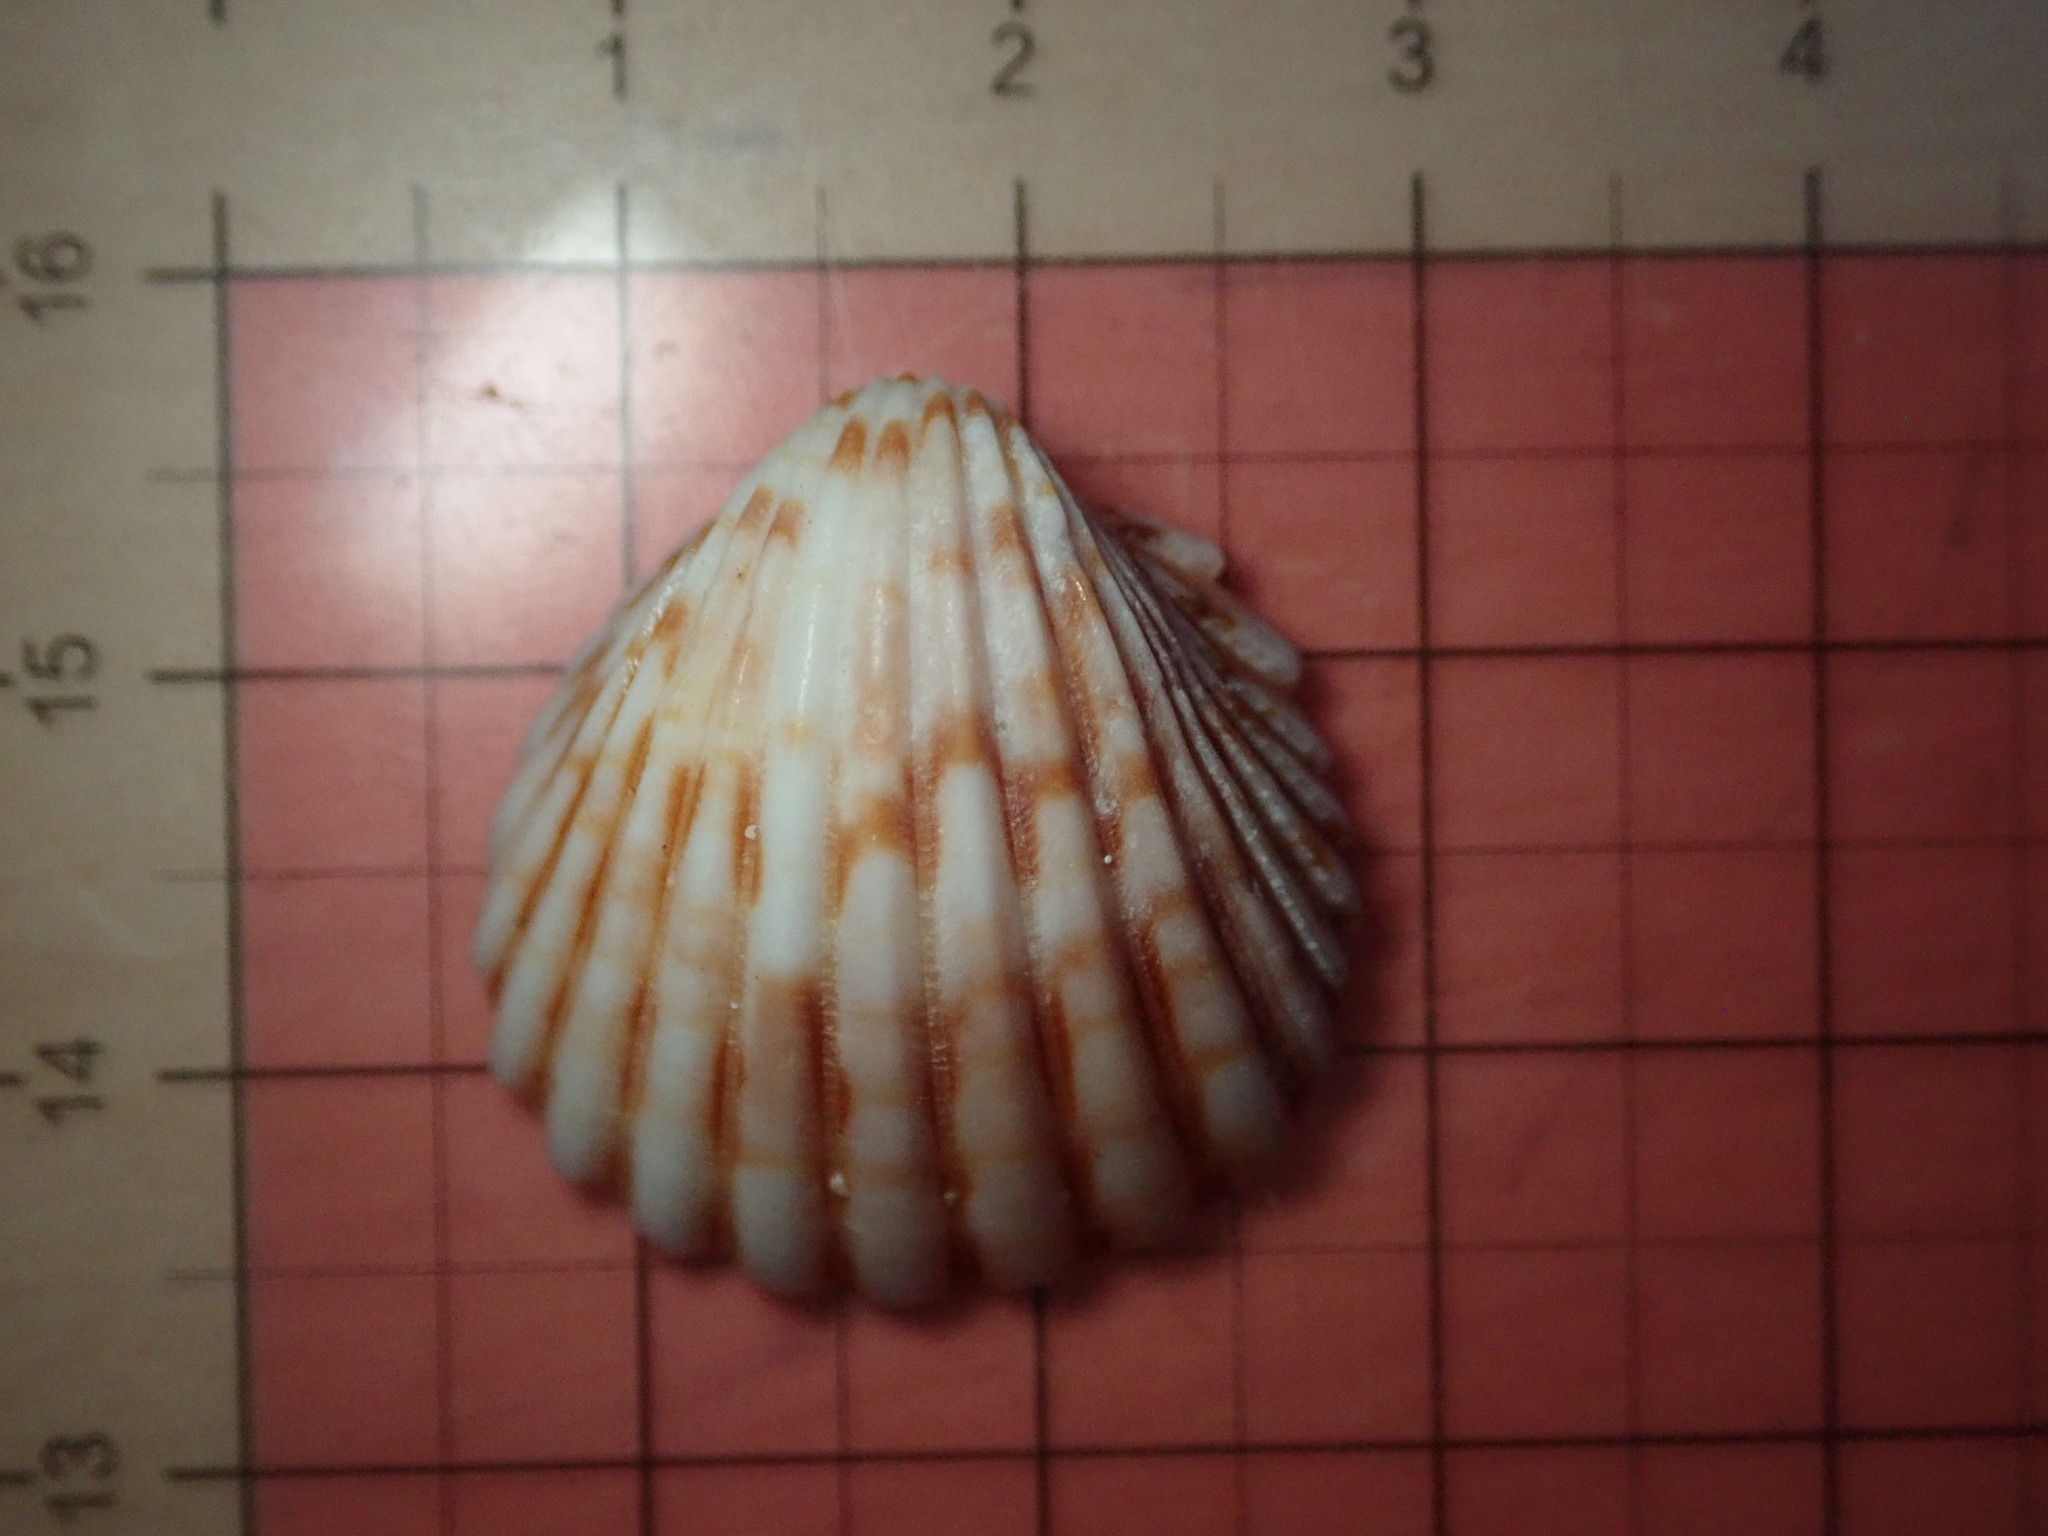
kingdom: Animalia
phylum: Mollusca
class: Bivalvia
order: Cardiida
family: Cardiidae
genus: Trachycardium
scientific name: Trachycardium procerum
